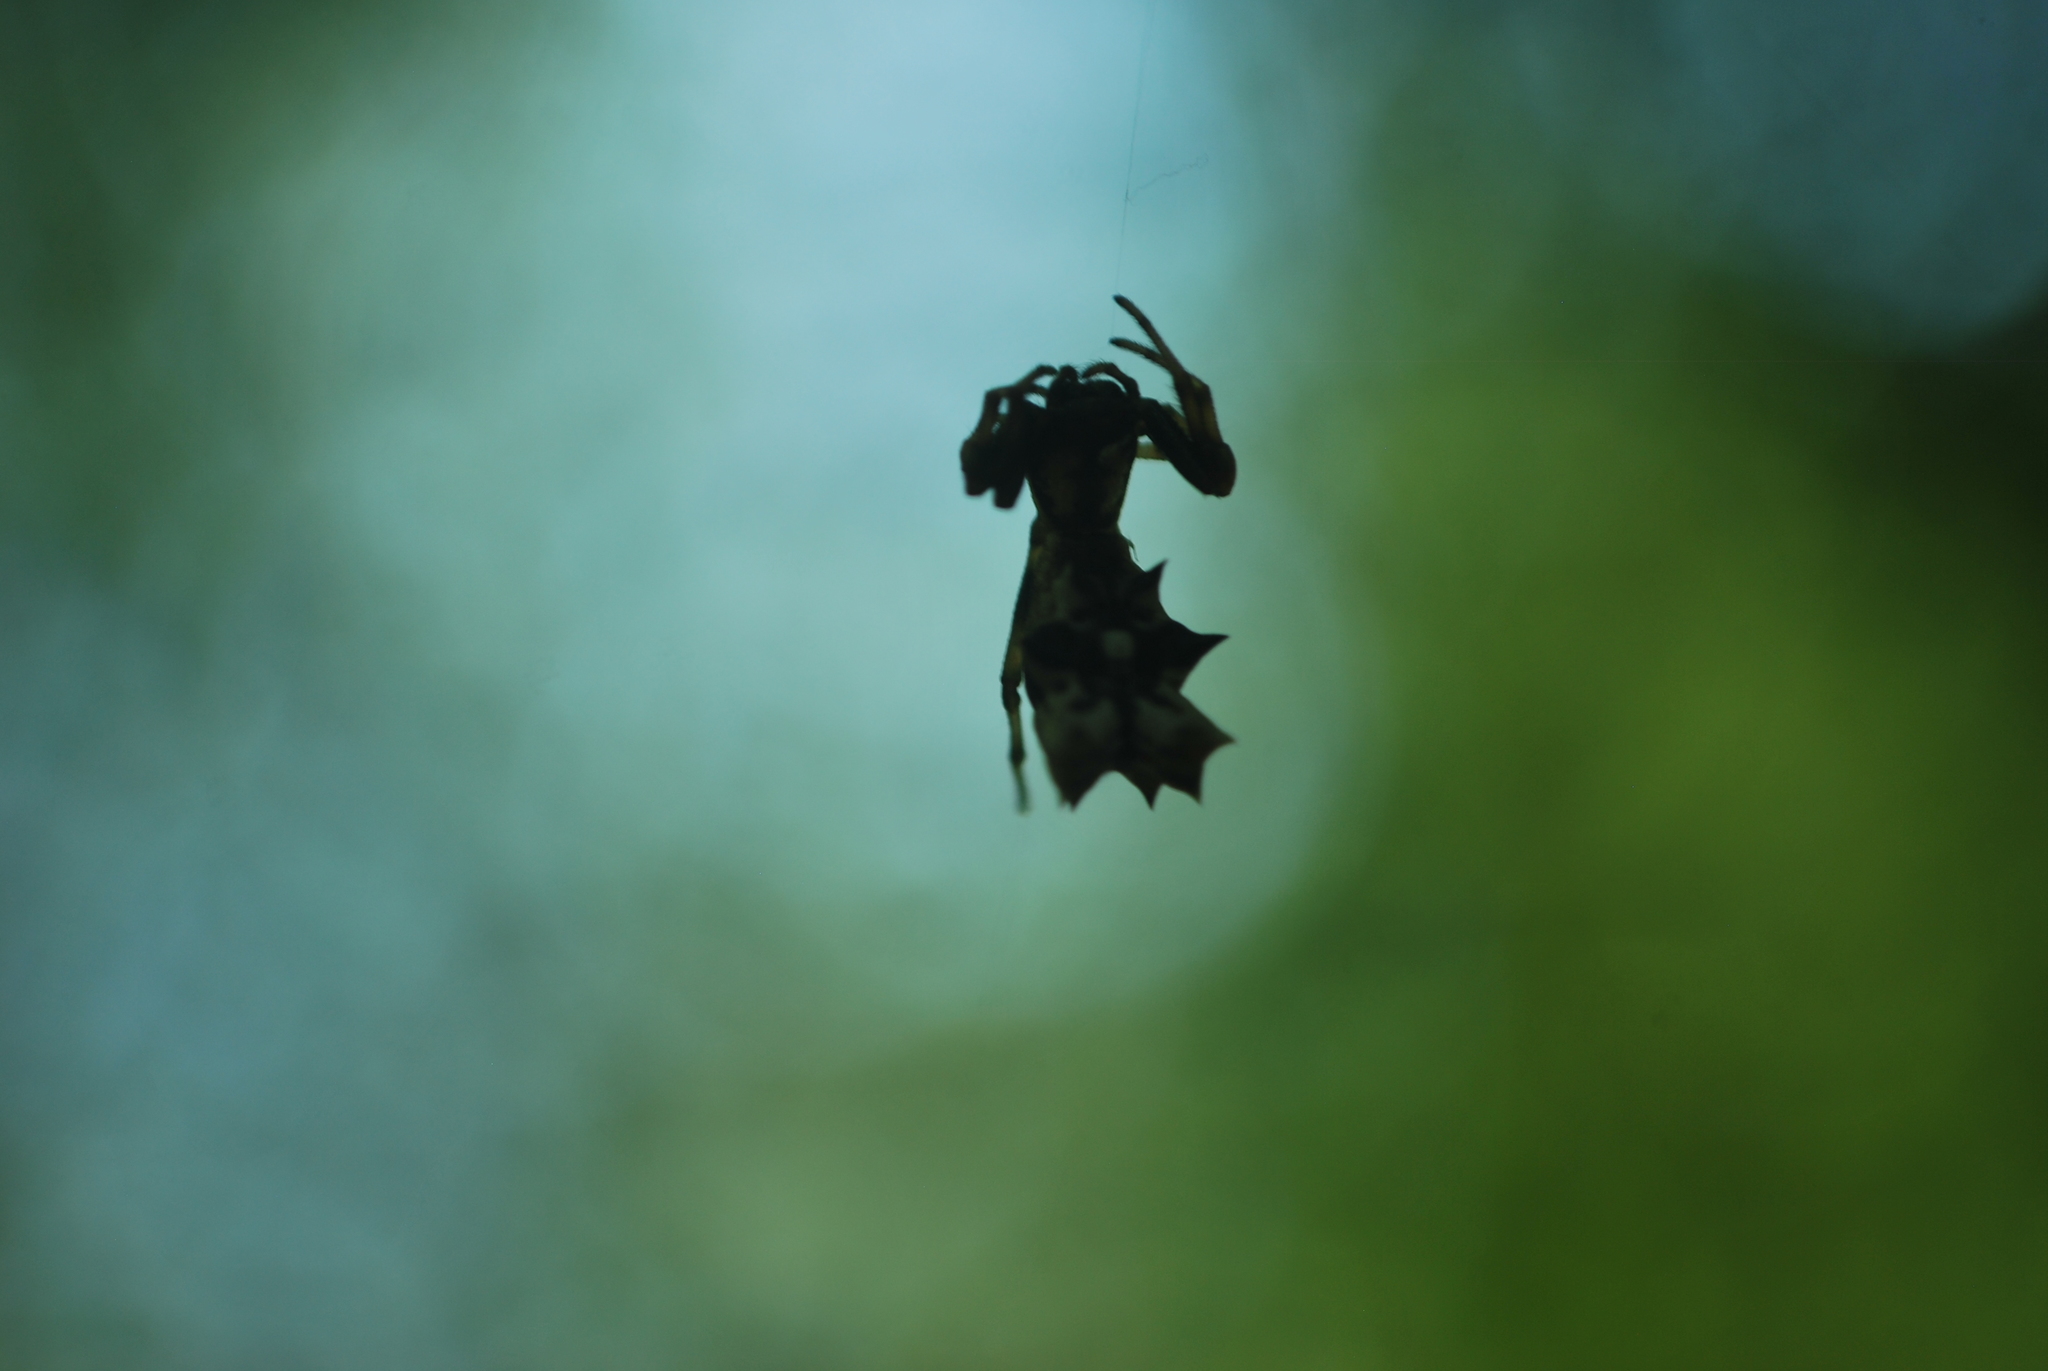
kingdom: Animalia
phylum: Arthropoda
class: Arachnida
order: Araneae
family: Araneidae
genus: Micrathena
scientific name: Micrathena gracilis
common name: Orb weavers
